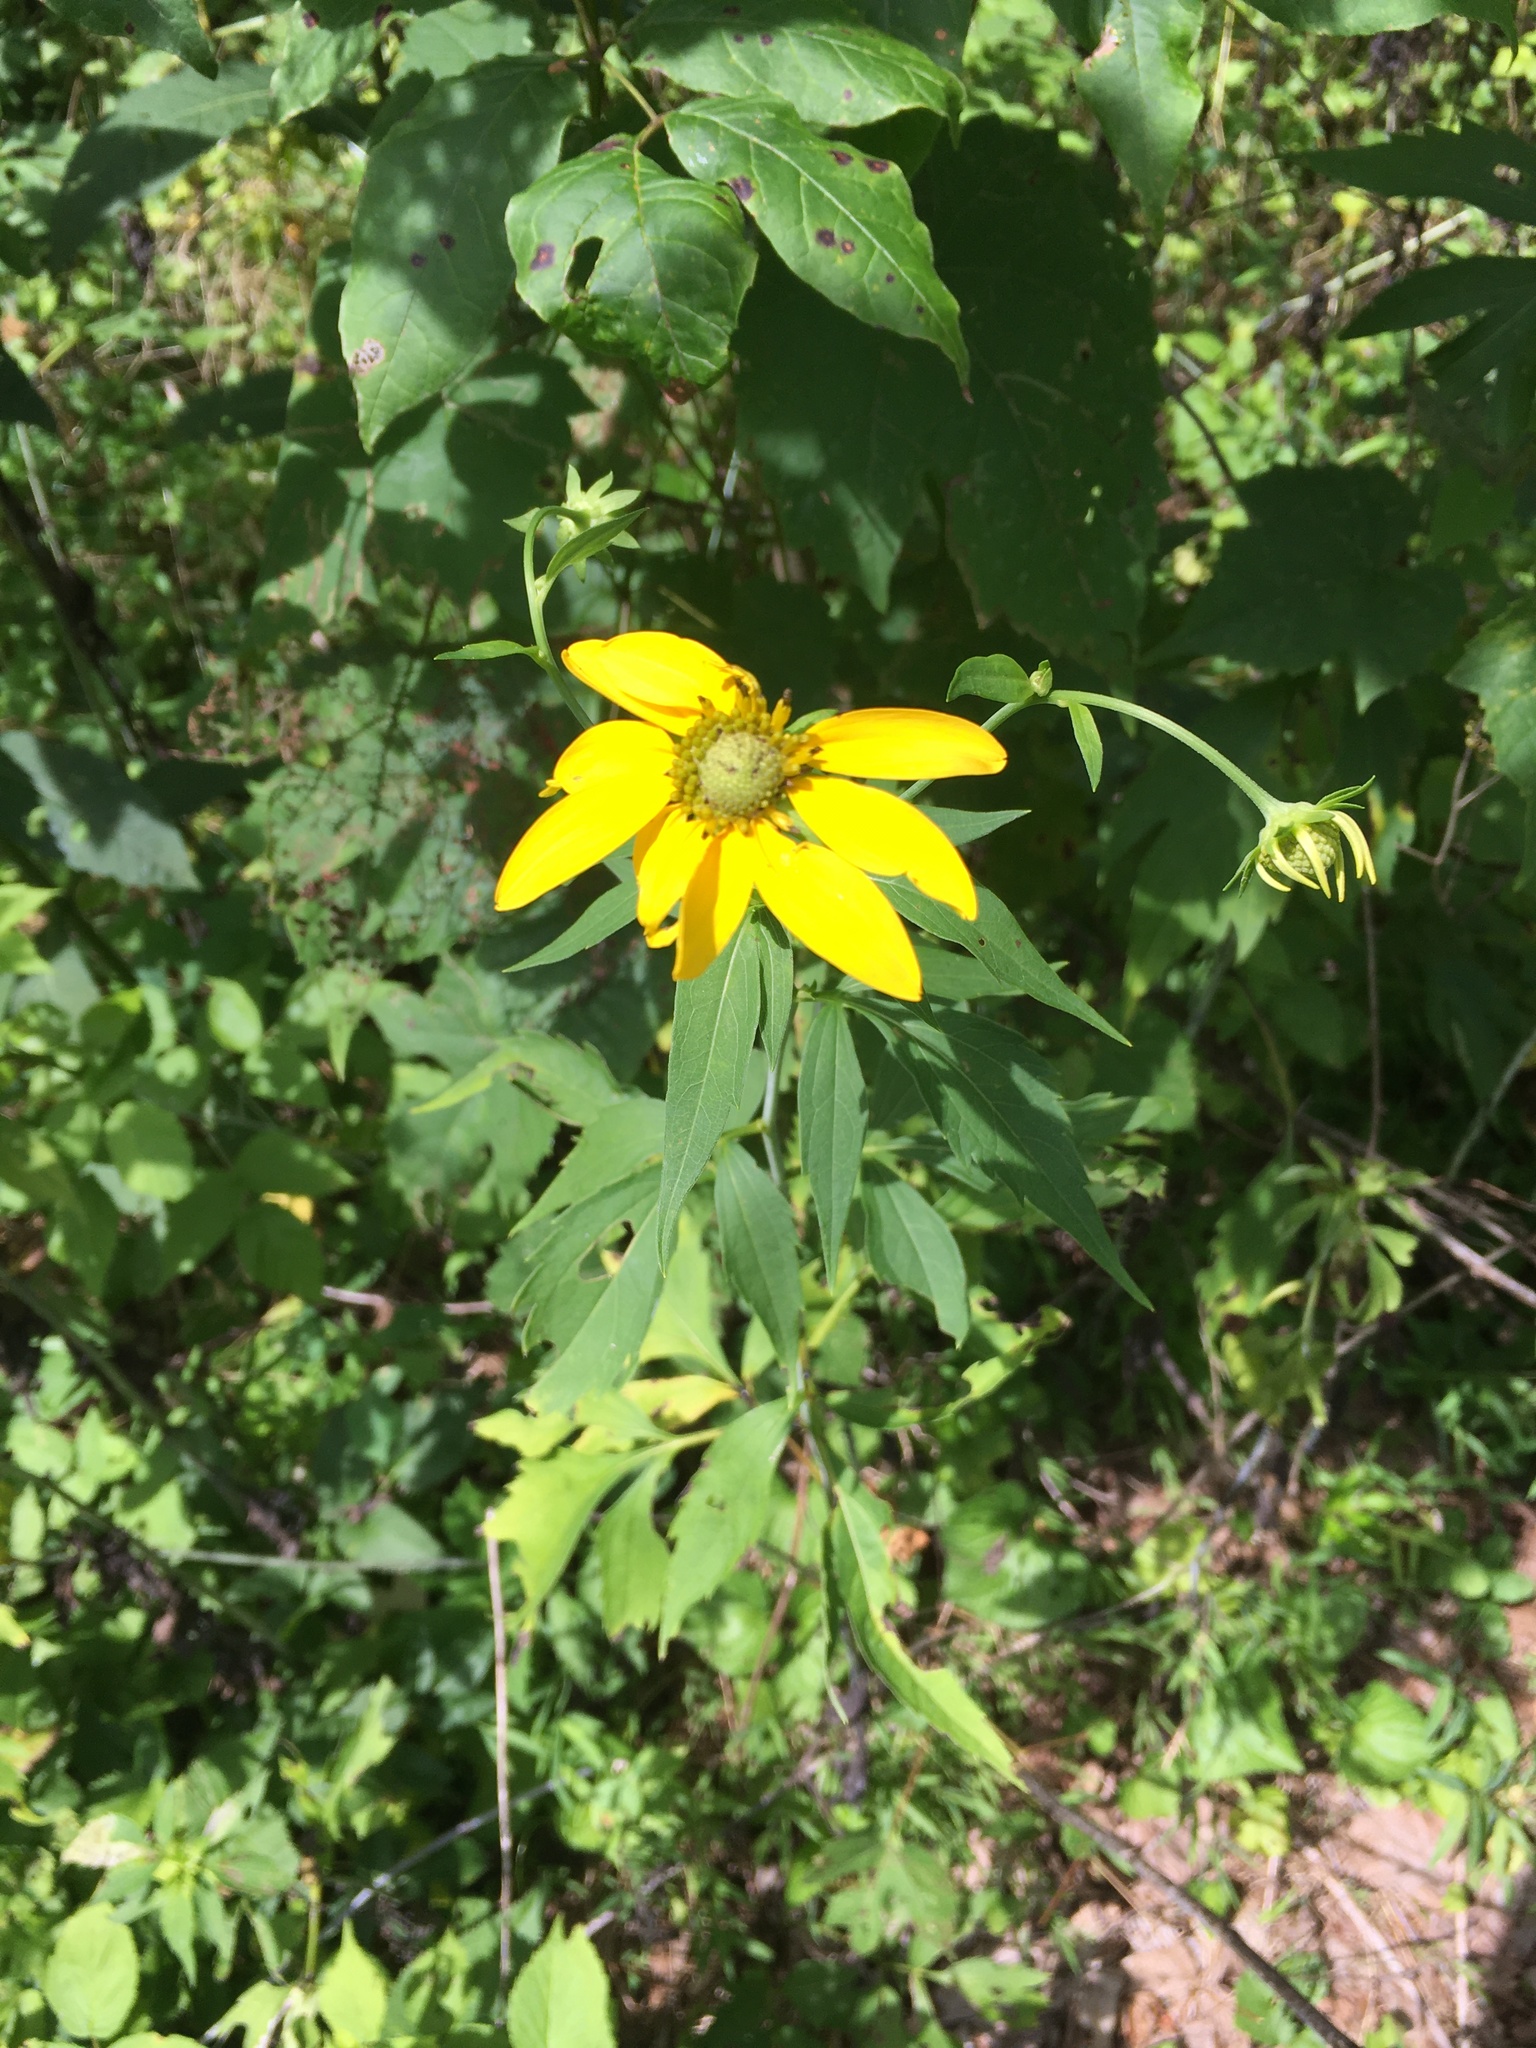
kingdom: Plantae
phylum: Tracheophyta
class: Magnoliopsida
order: Asterales
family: Asteraceae
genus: Rudbeckia
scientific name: Rudbeckia laciniata
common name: Coneflower
